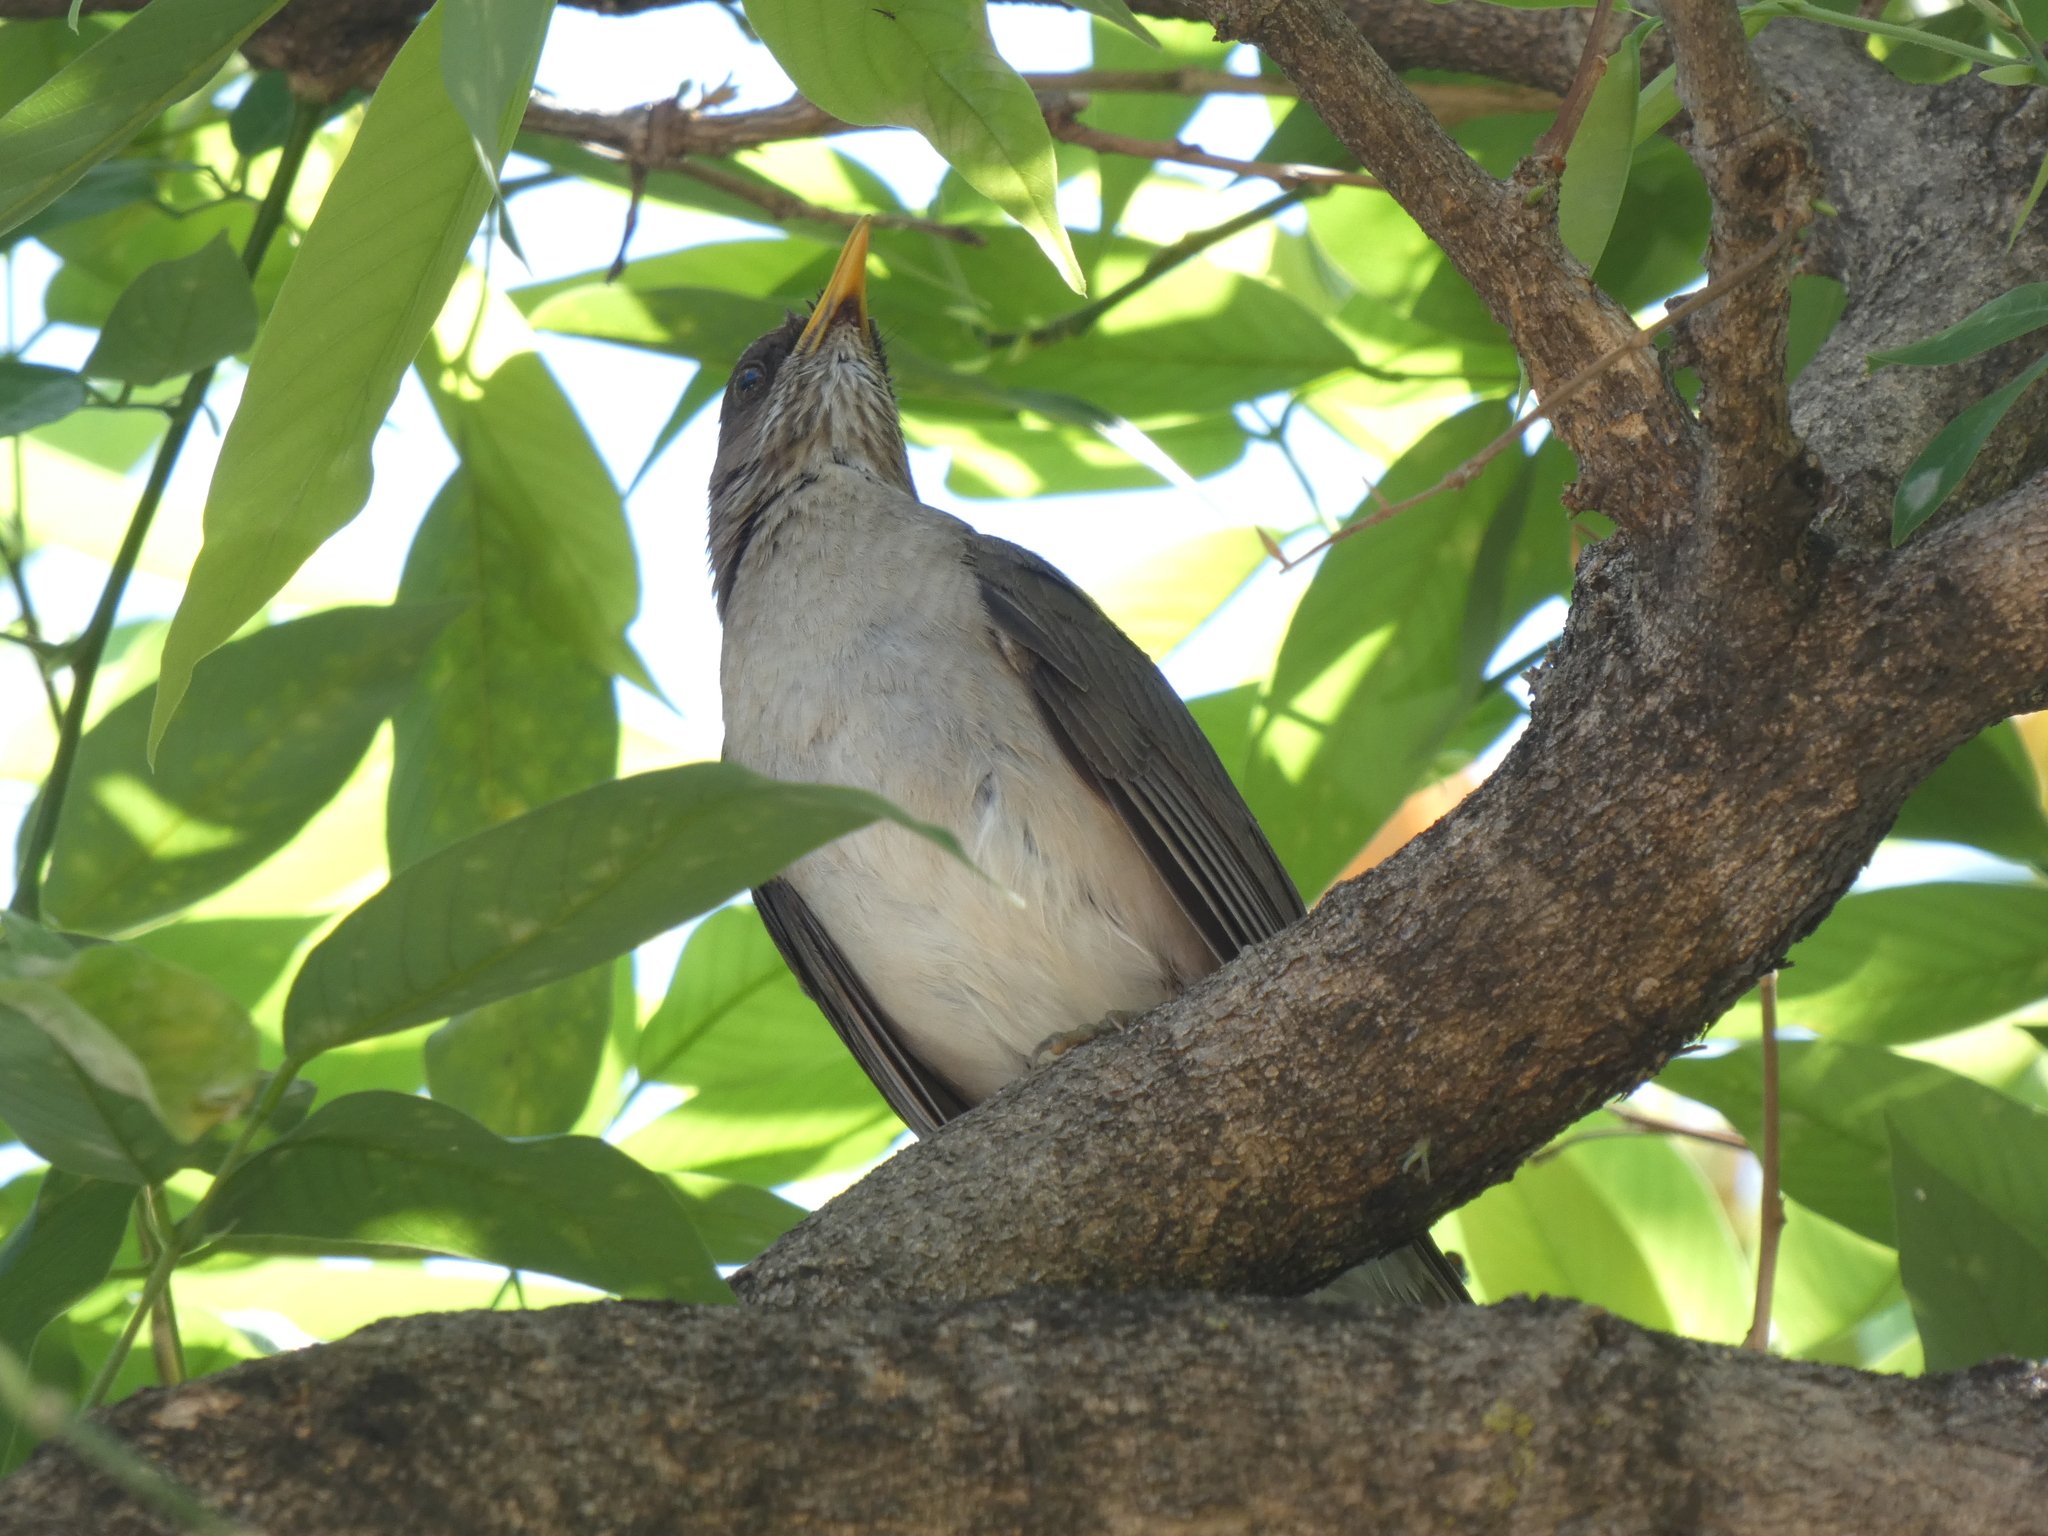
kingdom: Animalia
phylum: Chordata
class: Aves
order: Passeriformes
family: Turdidae
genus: Turdus
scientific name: Turdus amaurochalinus
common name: Creamy-bellied thrush
